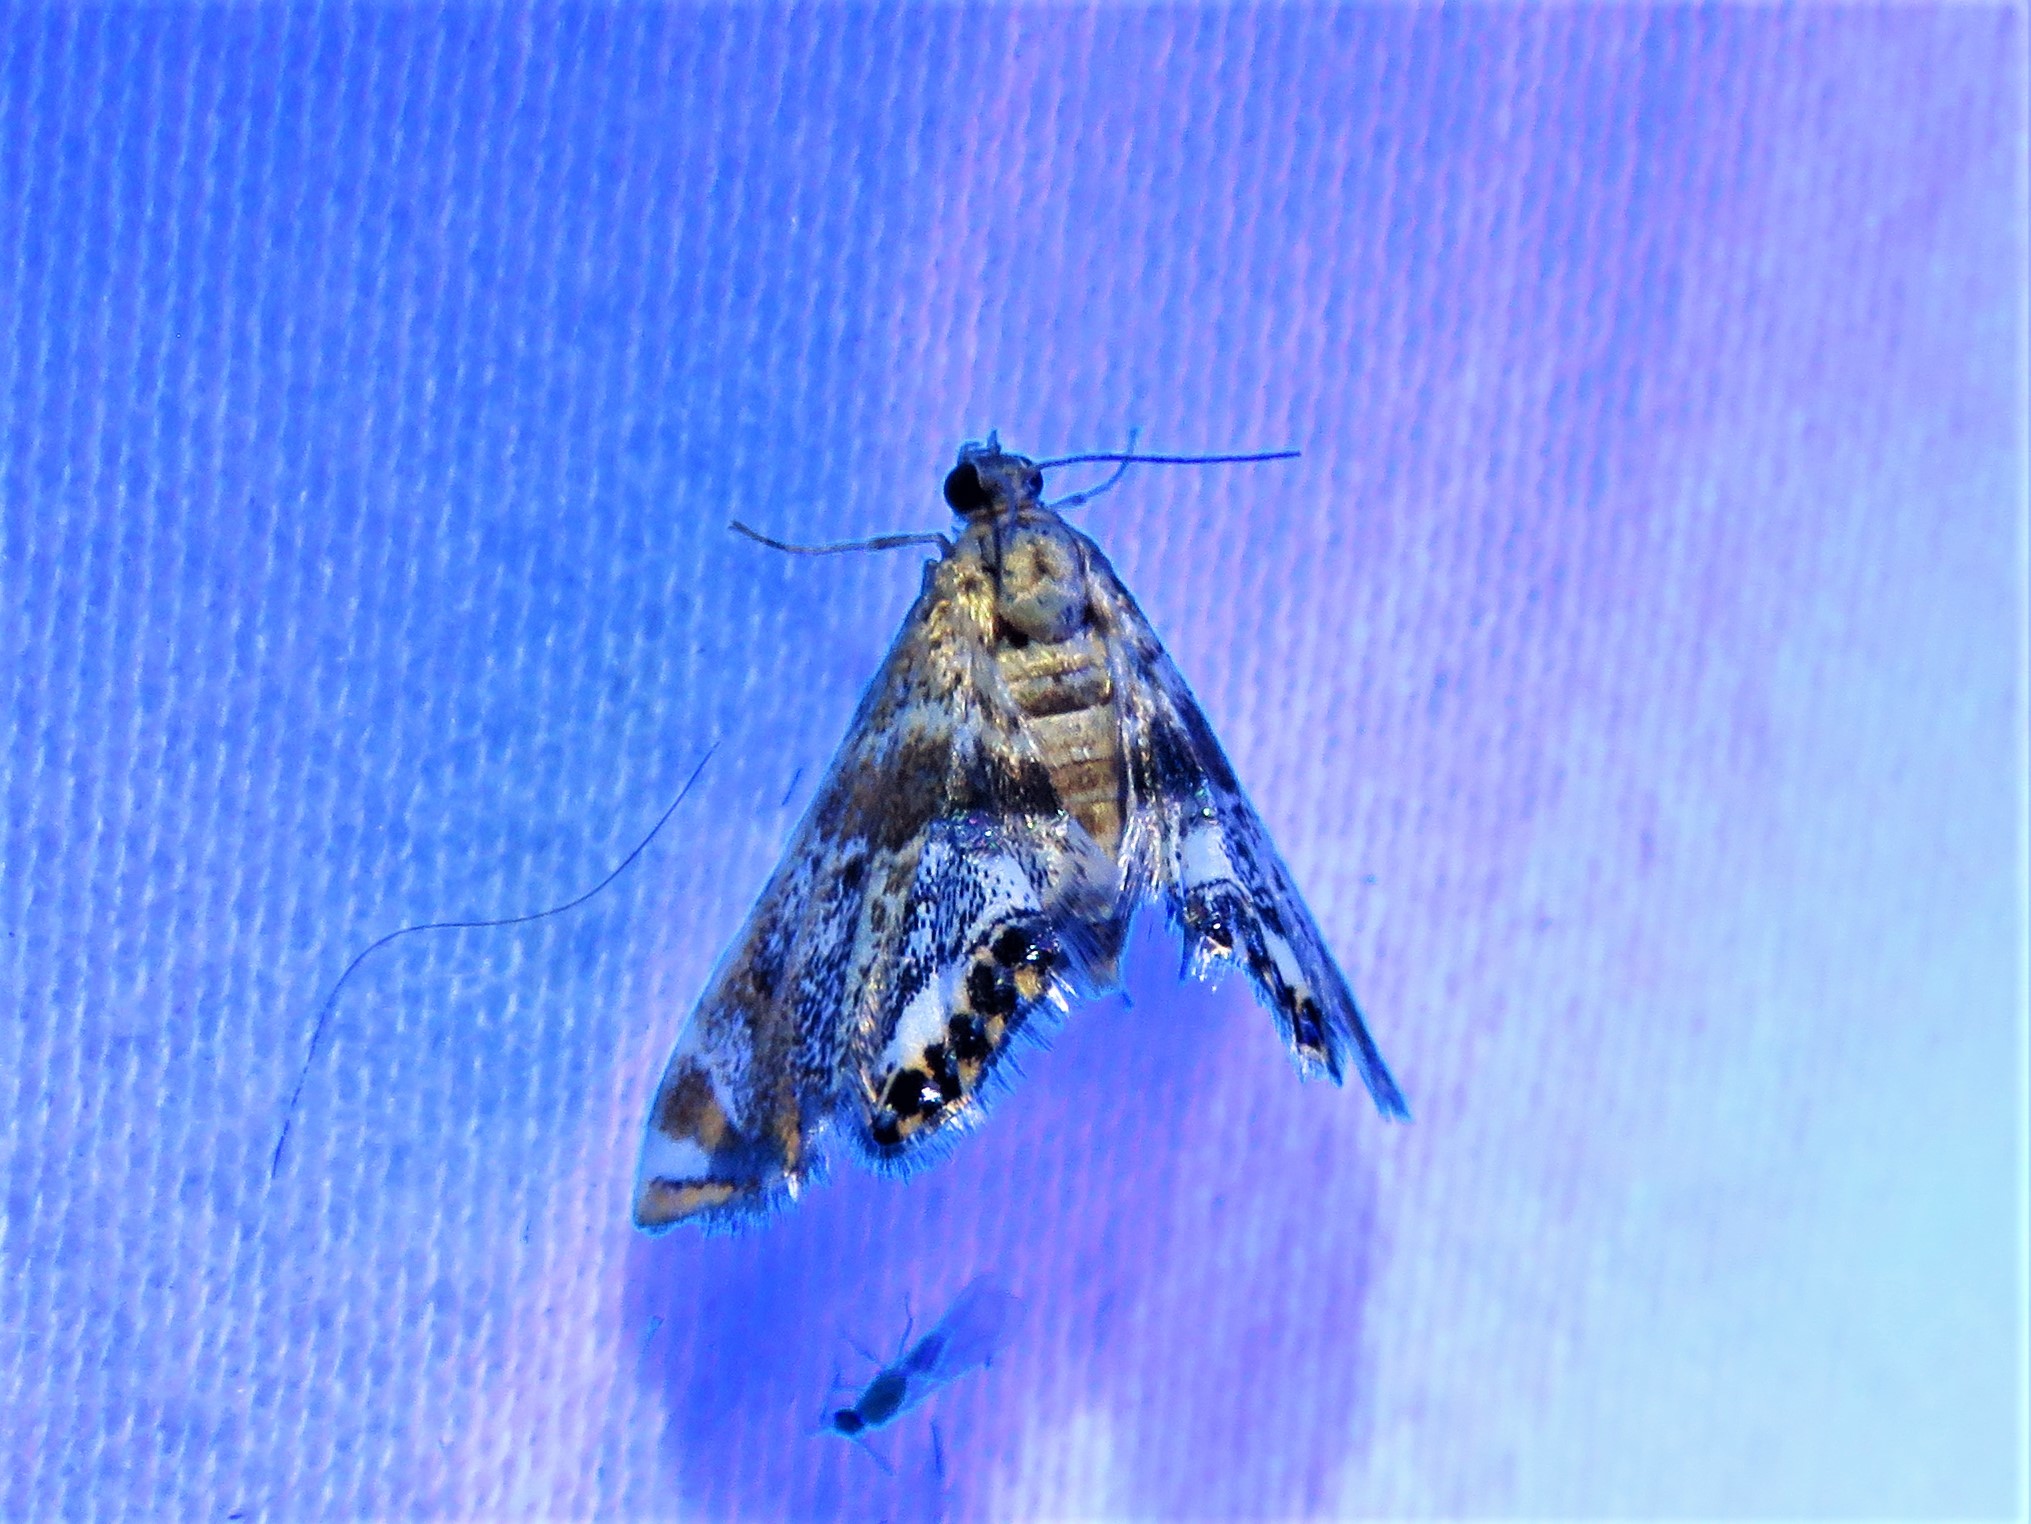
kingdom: Animalia
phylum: Arthropoda
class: Insecta
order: Lepidoptera
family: Crambidae
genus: Petrophila
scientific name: Petrophila fulicalis
